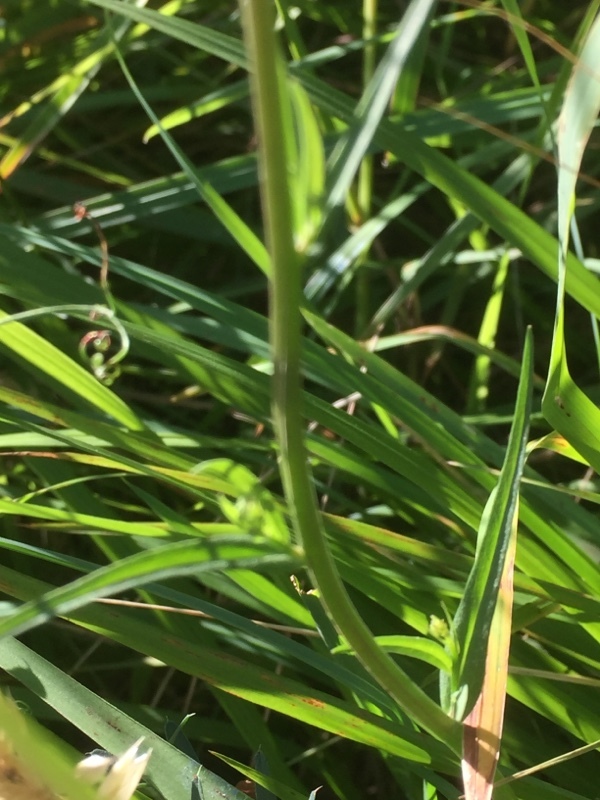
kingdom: Plantae
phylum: Tracheophyta
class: Magnoliopsida
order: Asterales
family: Campanulaceae
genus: Campanula
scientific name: Campanula rapunculus
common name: Rampion bellflower
